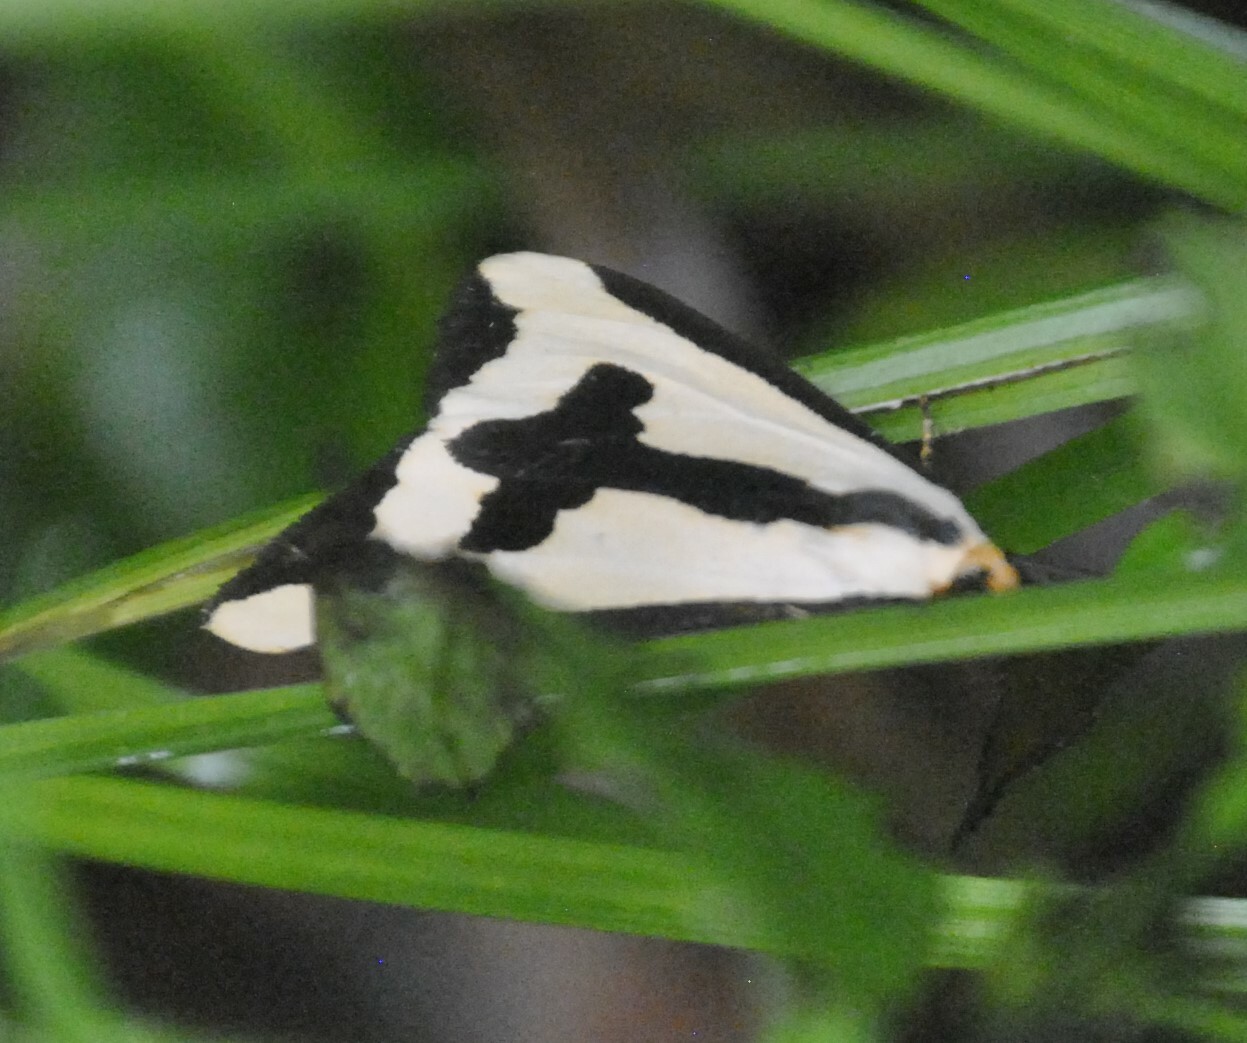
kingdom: Animalia
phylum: Arthropoda
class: Insecta
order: Lepidoptera
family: Erebidae
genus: Haploa
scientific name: Haploa clymene
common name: Clymene moth
